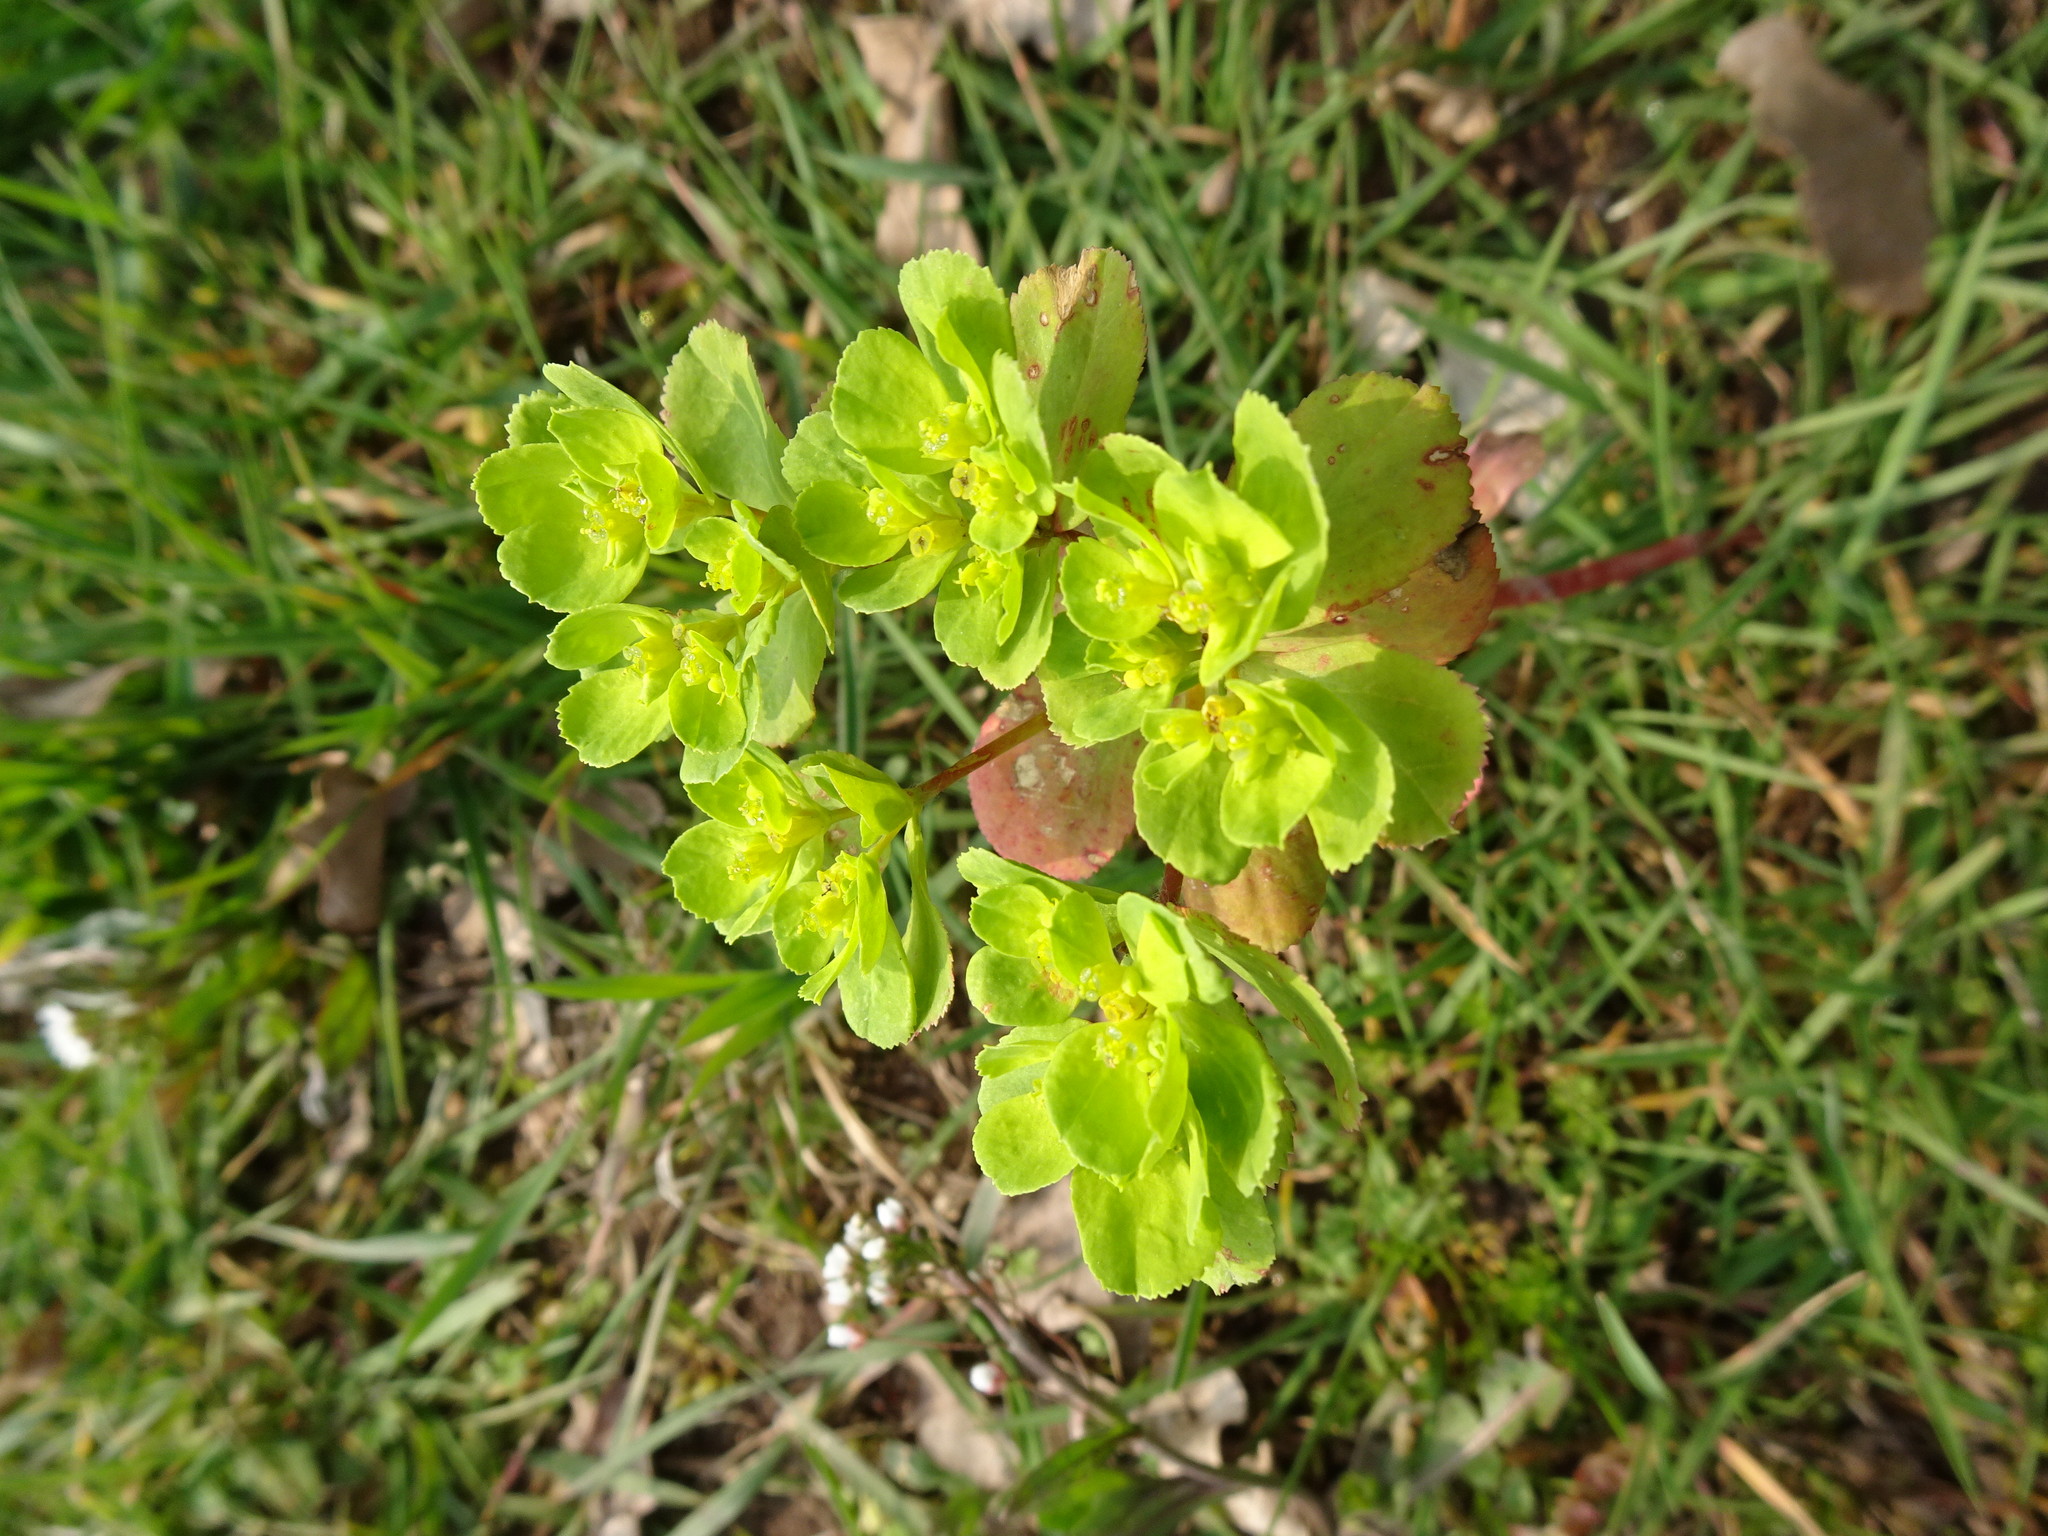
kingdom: Plantae
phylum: Tracheophyta
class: Magnoliopsida
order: Malpighiales
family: Euphorbiaceae
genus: Euphorbia
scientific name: Euphorbia helioscopia
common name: Sun spurge
